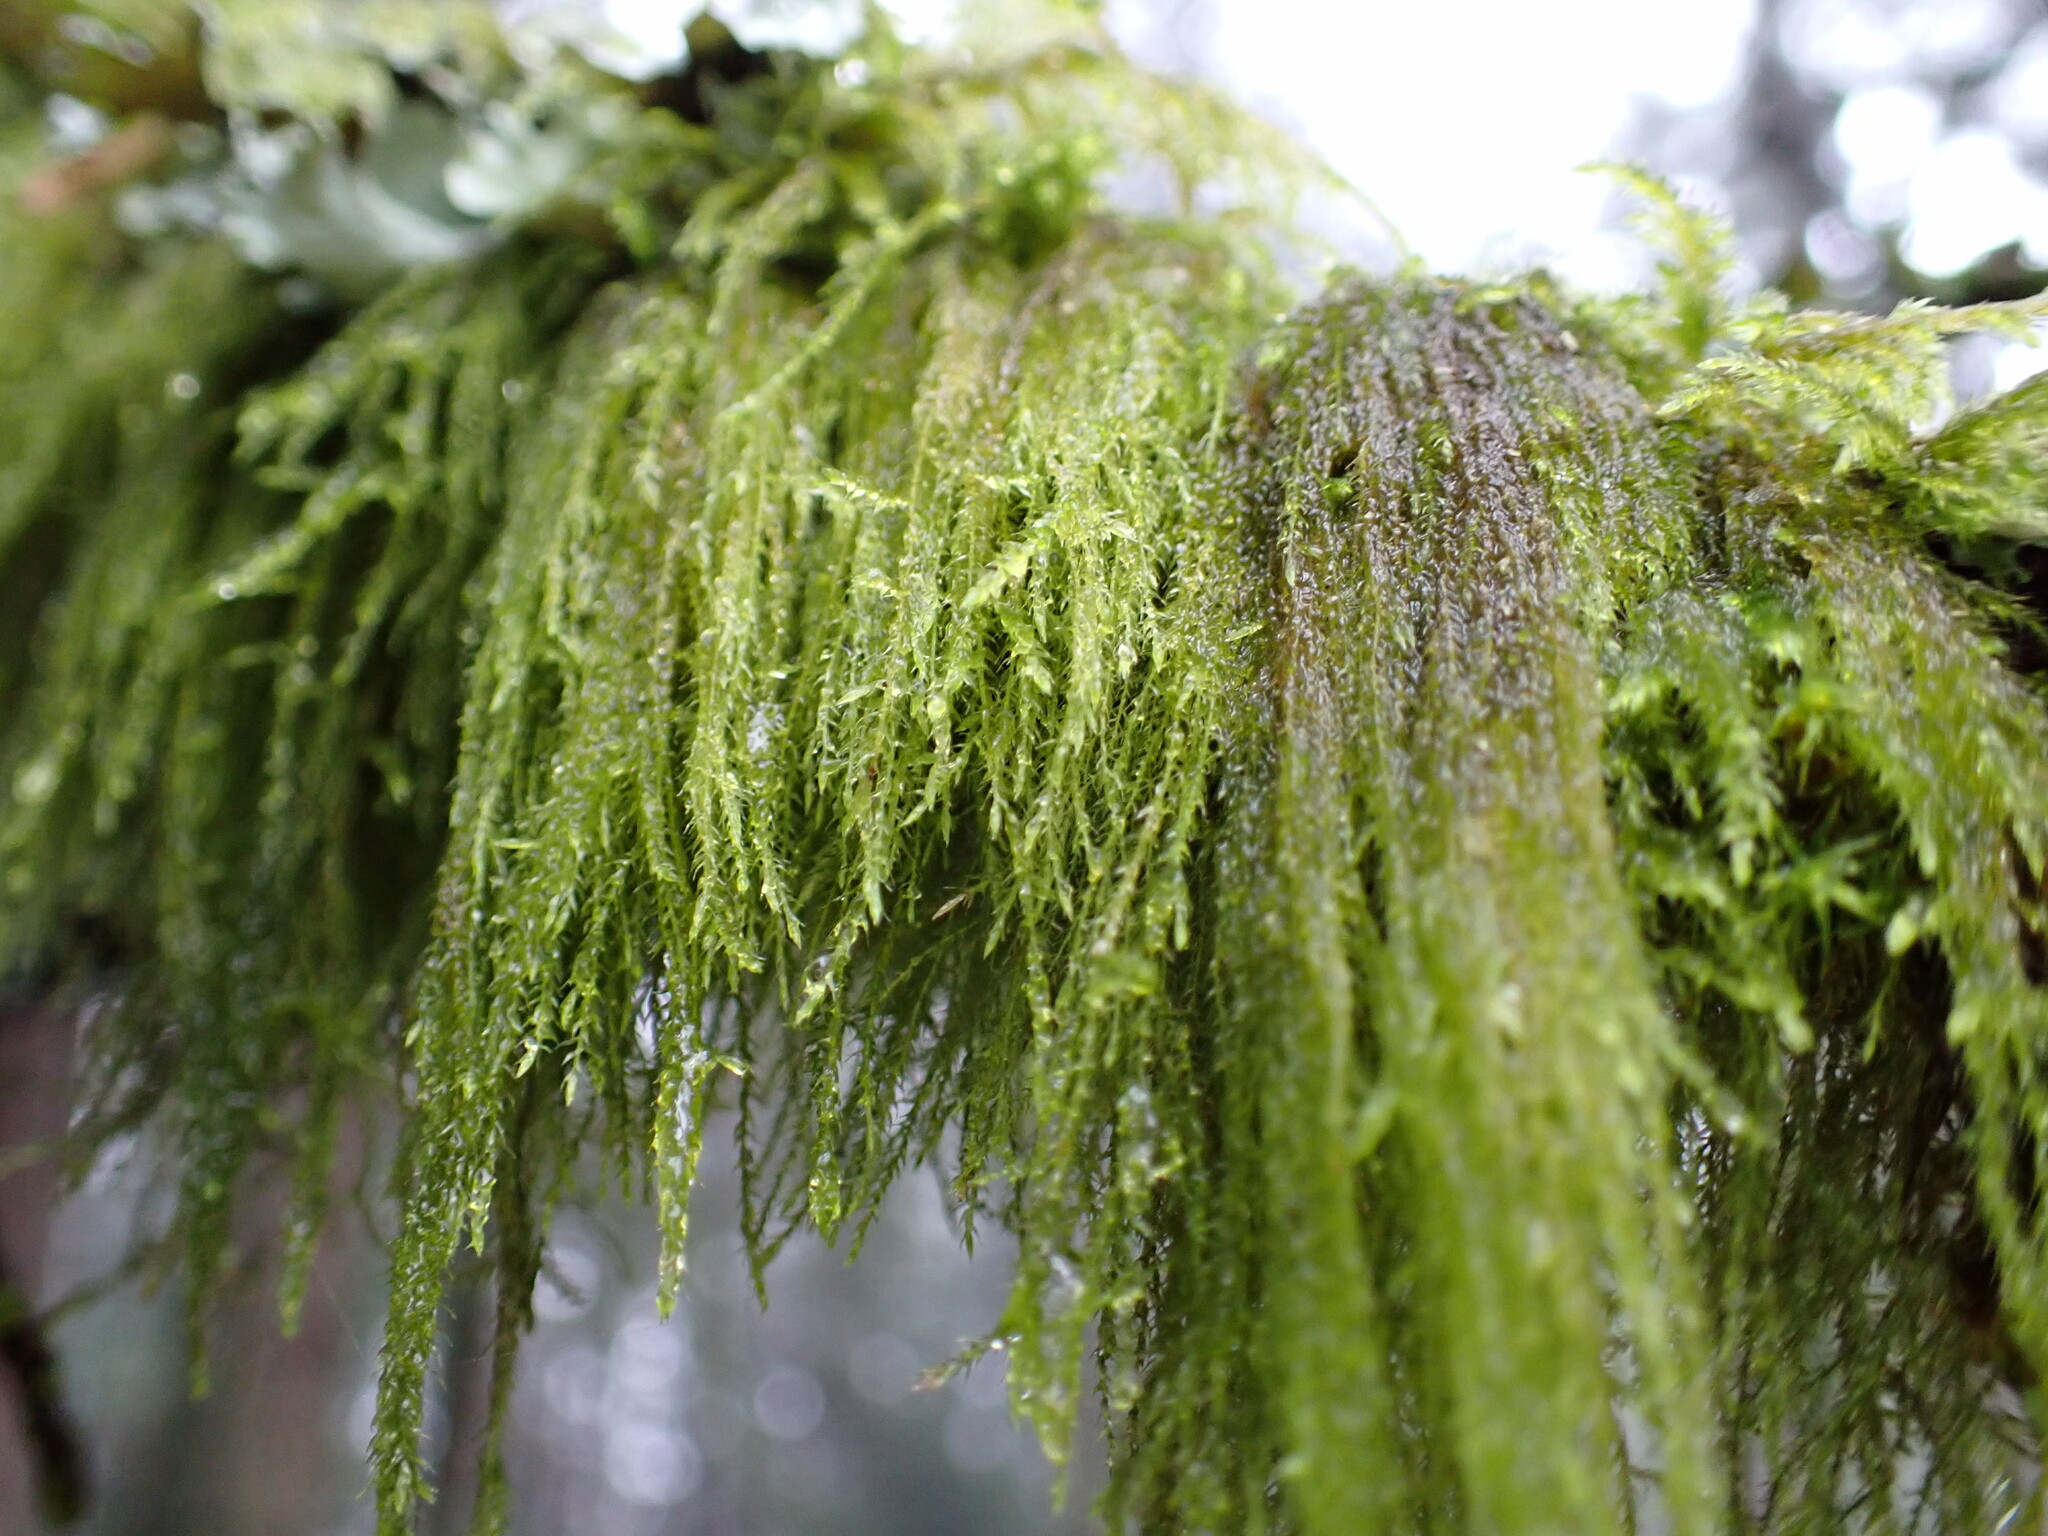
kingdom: Plantae
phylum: Bryophyta
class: Bryopsida
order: Hypnales
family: Lembophyllaceae
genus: Pseudisothecium
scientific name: Pseudisothecium stoloniferum
